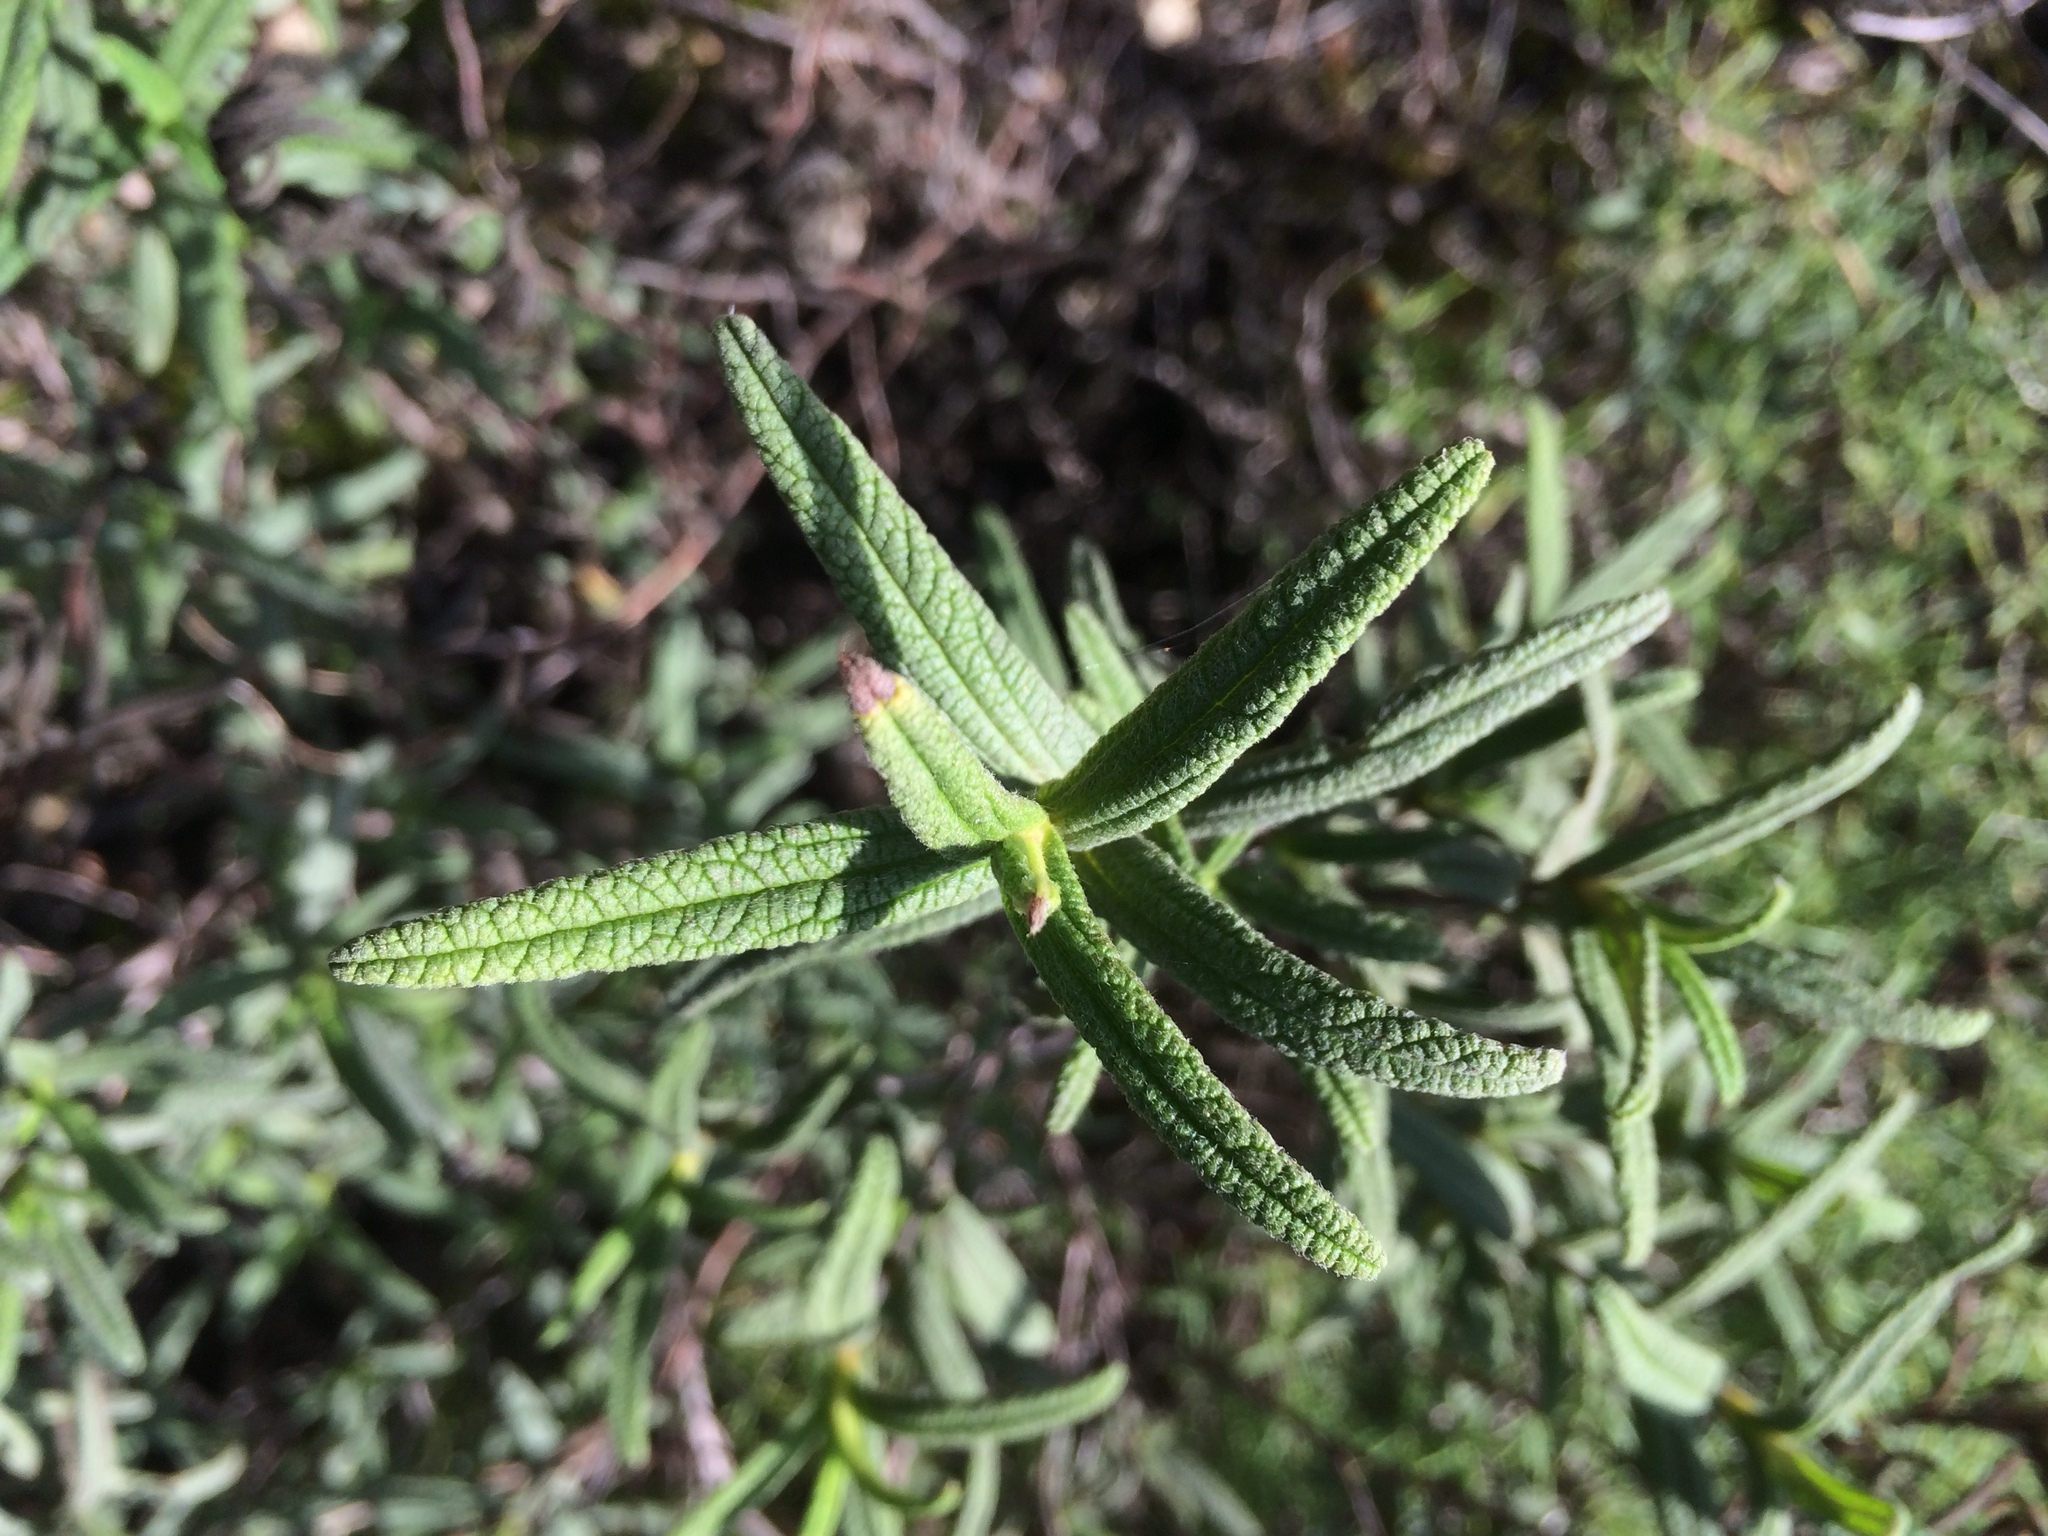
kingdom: Plantae
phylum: Tracheophyta
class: Magnoliopsida
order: Malvales
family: Cistaceae
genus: Cistus
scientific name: Cistus monspeliensis
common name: Montpelier cistus
